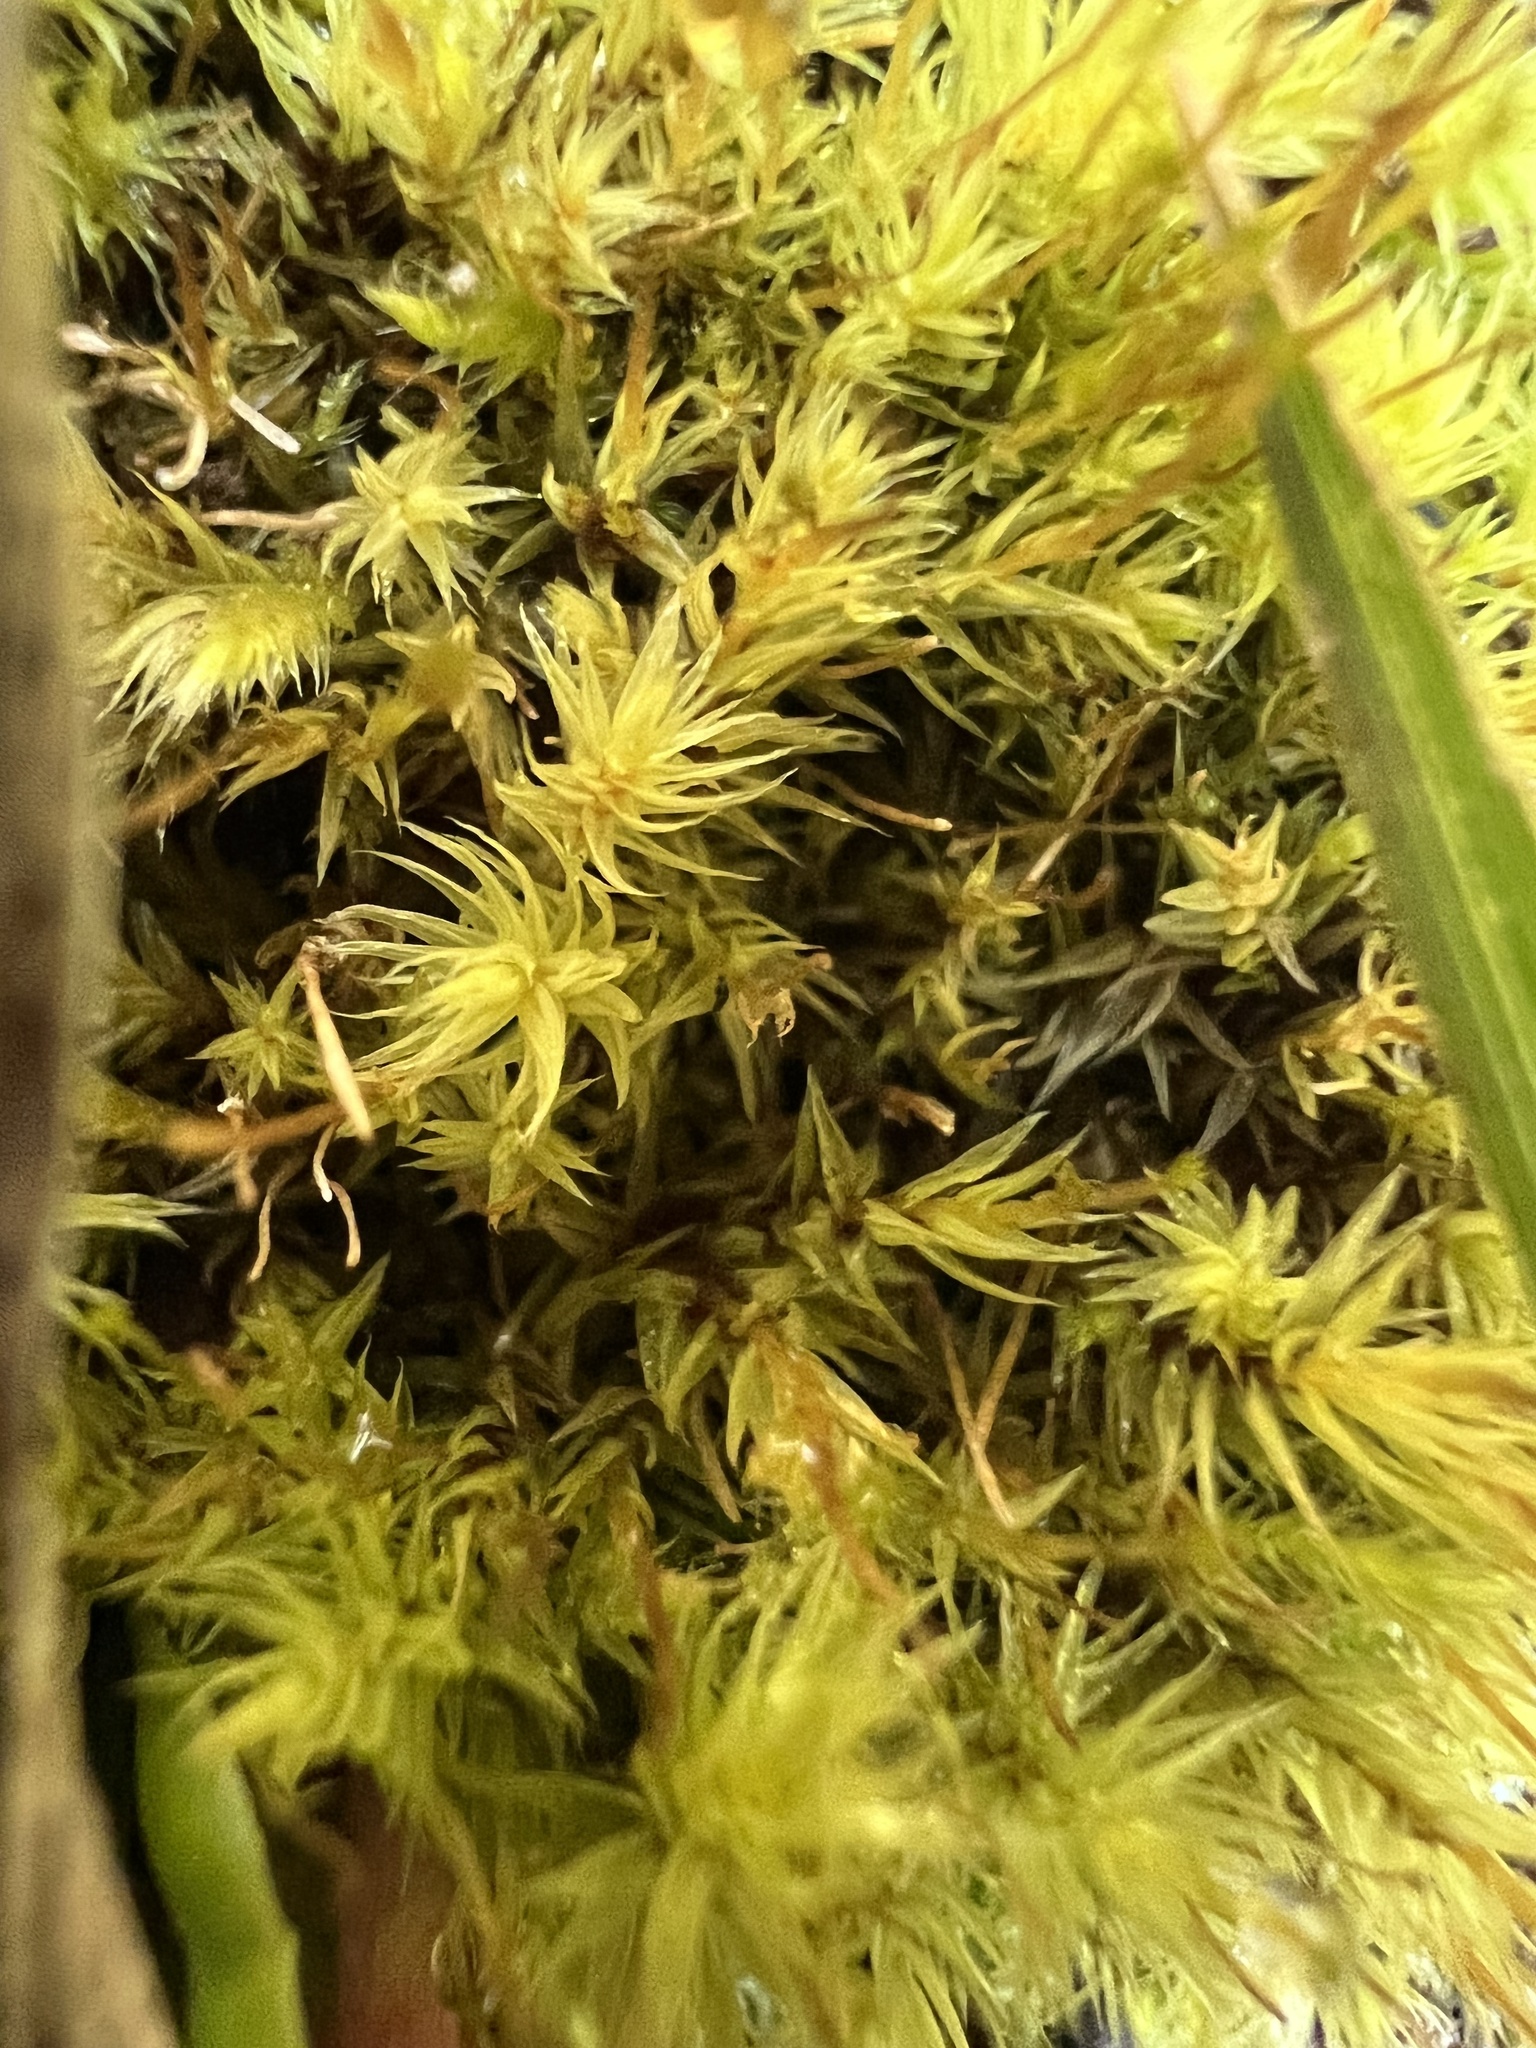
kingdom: Plantae
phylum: Bryophyta
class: Bryopsida
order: Aulacomniales
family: Aulacomniaceae
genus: Aulacomnium
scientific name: Aulacomnium palustre
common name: Bog groove-moss
